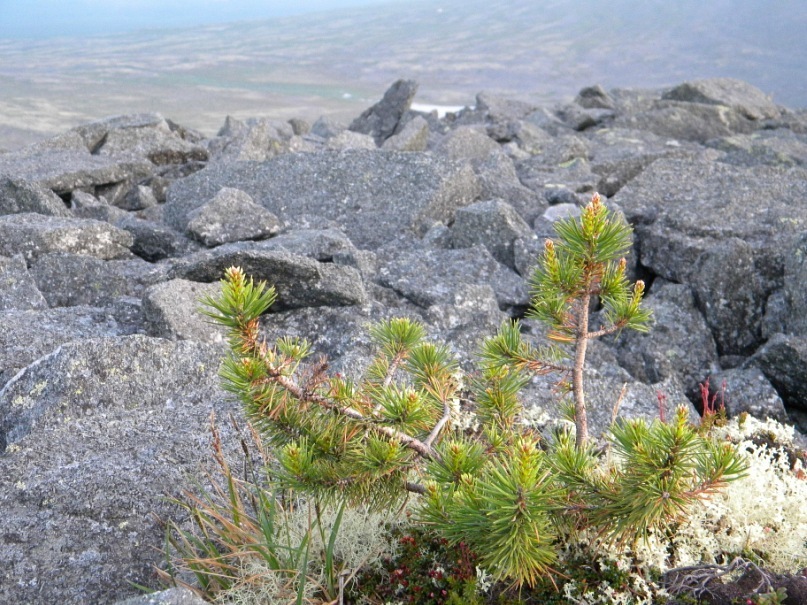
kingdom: Plantae
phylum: Tracheophyta
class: Pinopsida
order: Pinales
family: Pinaceae
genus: Pinus
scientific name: Pinus sylvestris
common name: Scots pine
